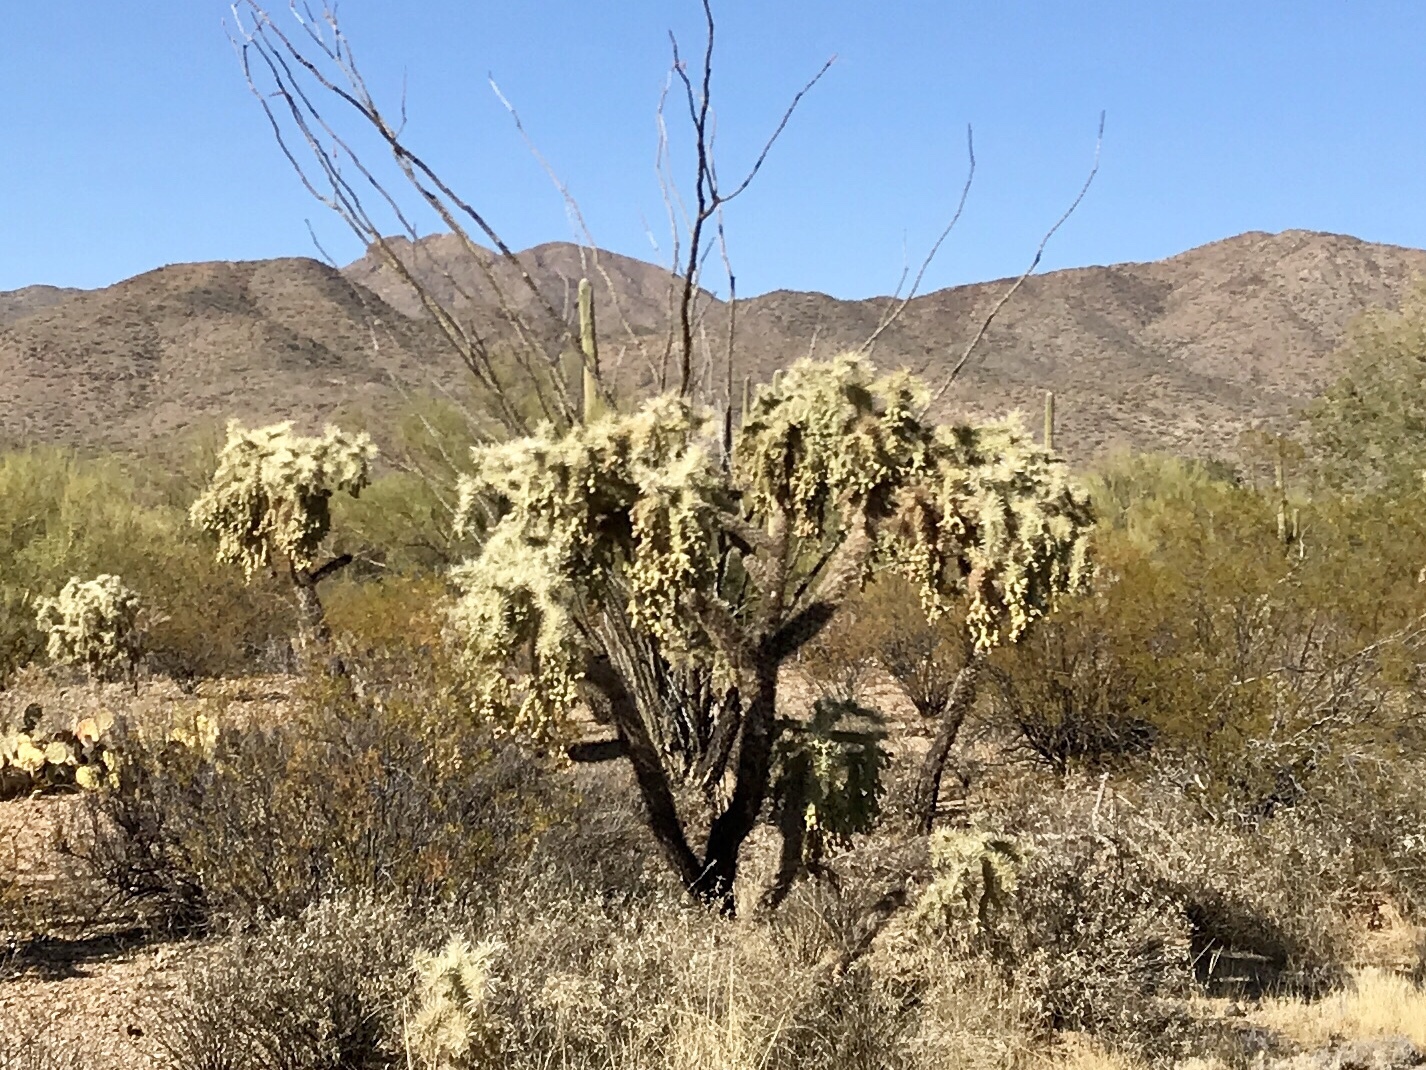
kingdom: Plantae
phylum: Tracheophyta
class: Magnoliopsida
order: Caryophyllales
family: Cactaceae
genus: Cylindropuntia
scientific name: Cylindropuntia fulgida
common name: Jumping cholla
